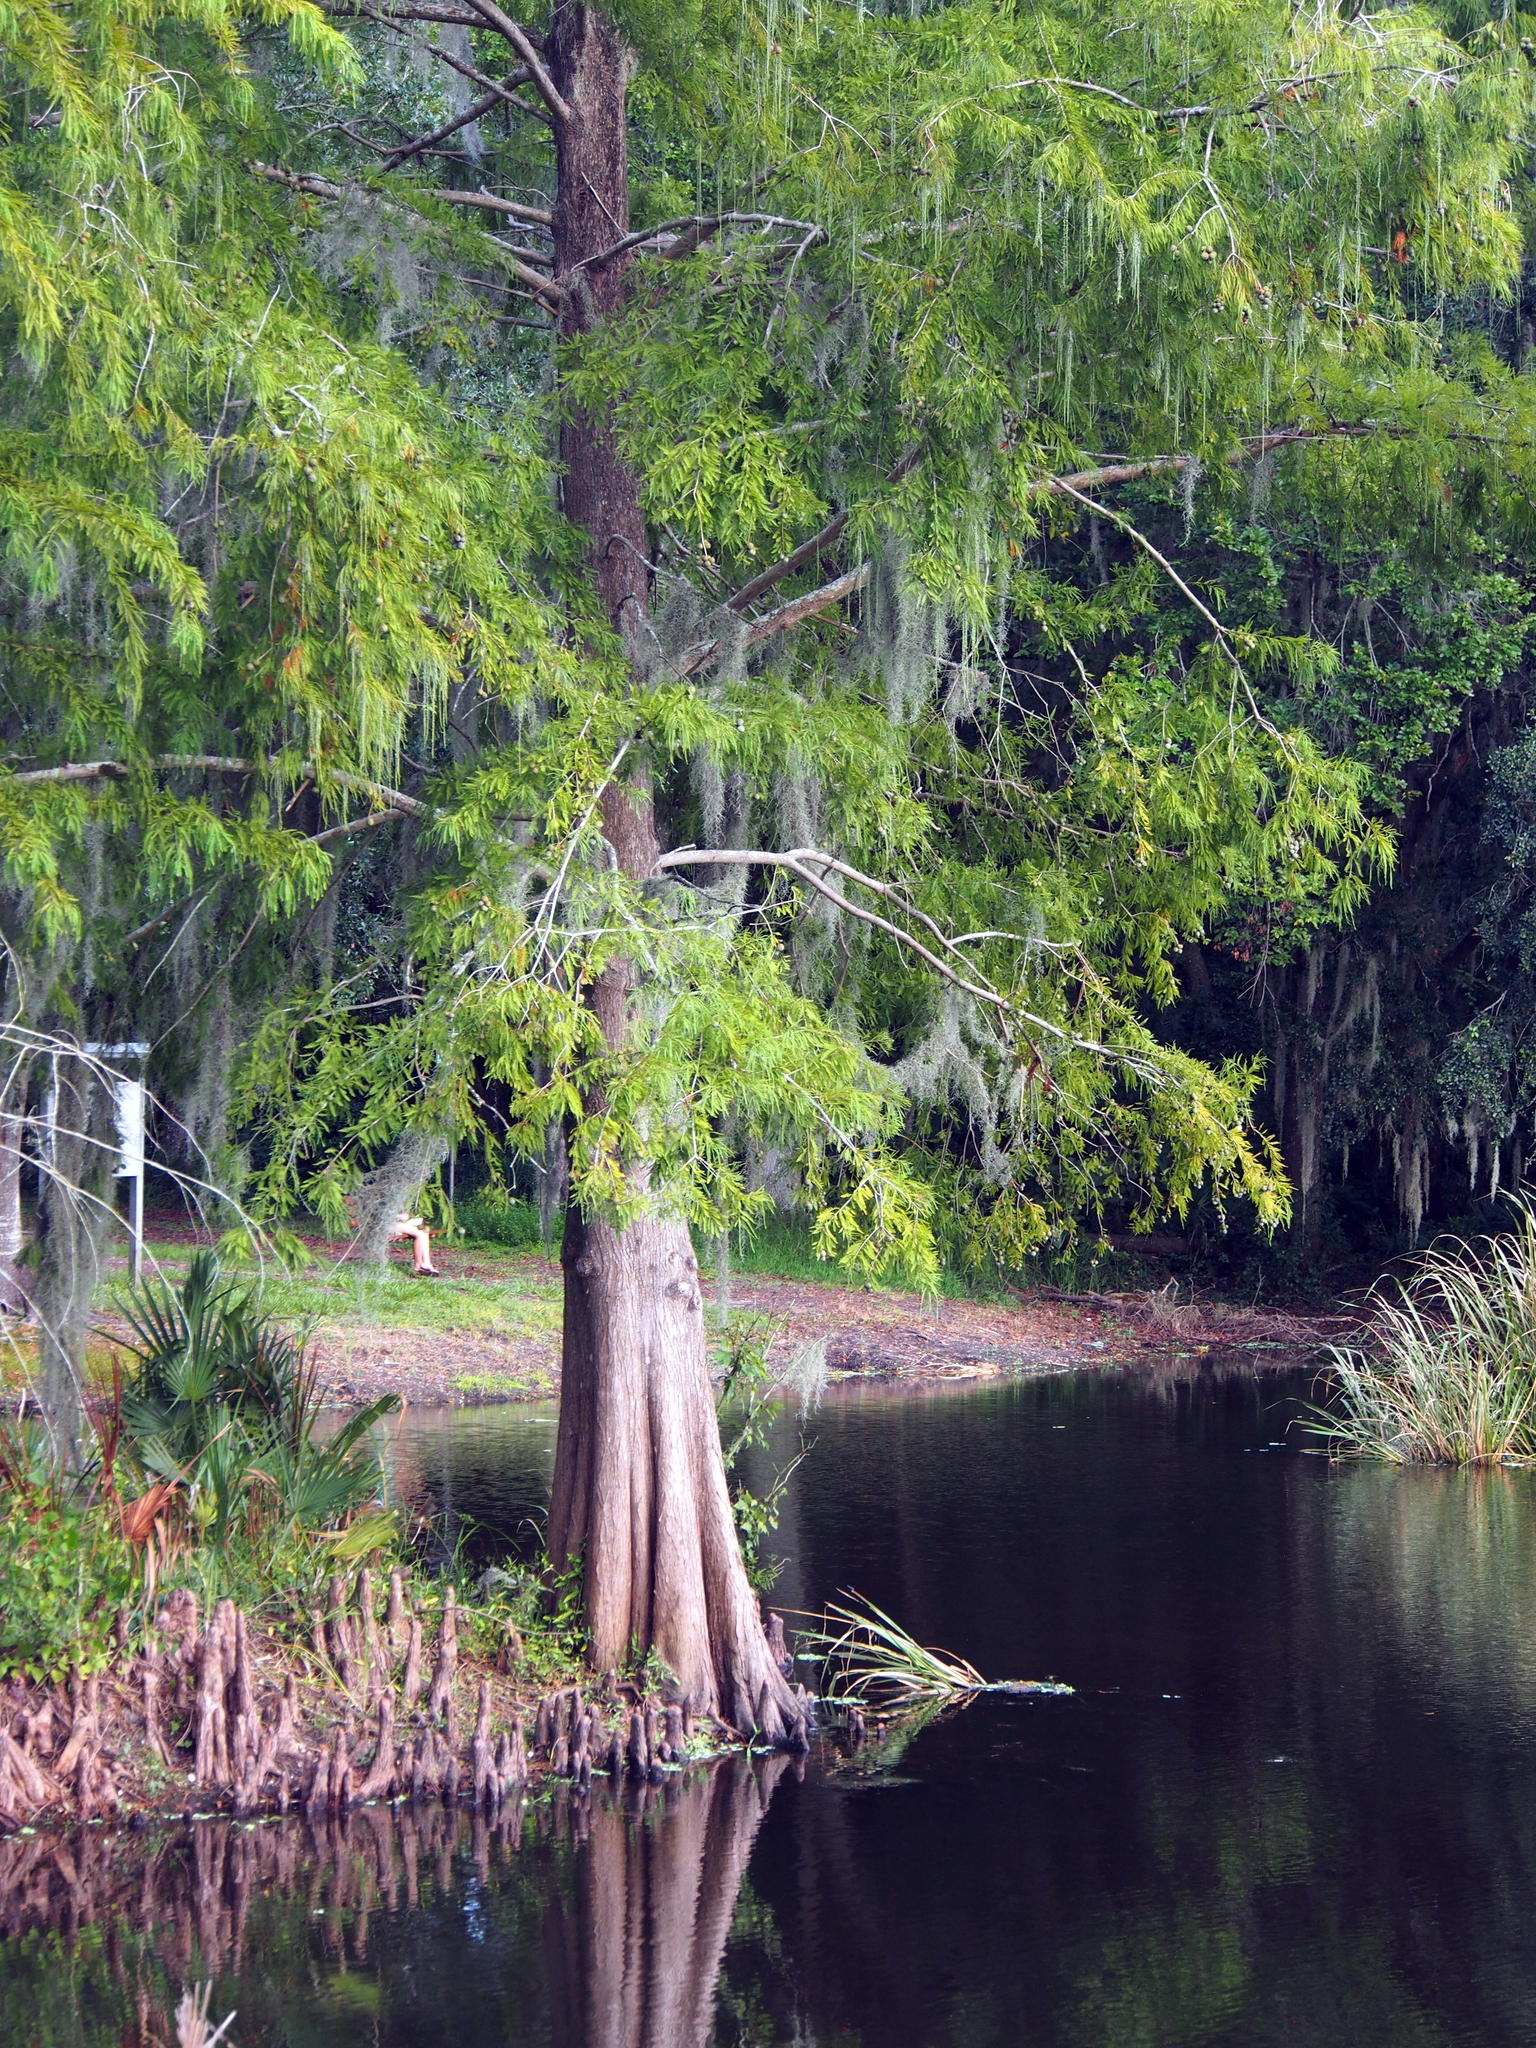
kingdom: Plantae
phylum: Tracheophyta
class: Pinopsida
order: Pinales
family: Cupressaceae
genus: Taxodium
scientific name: Taxodium distichum
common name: Bald cypress
